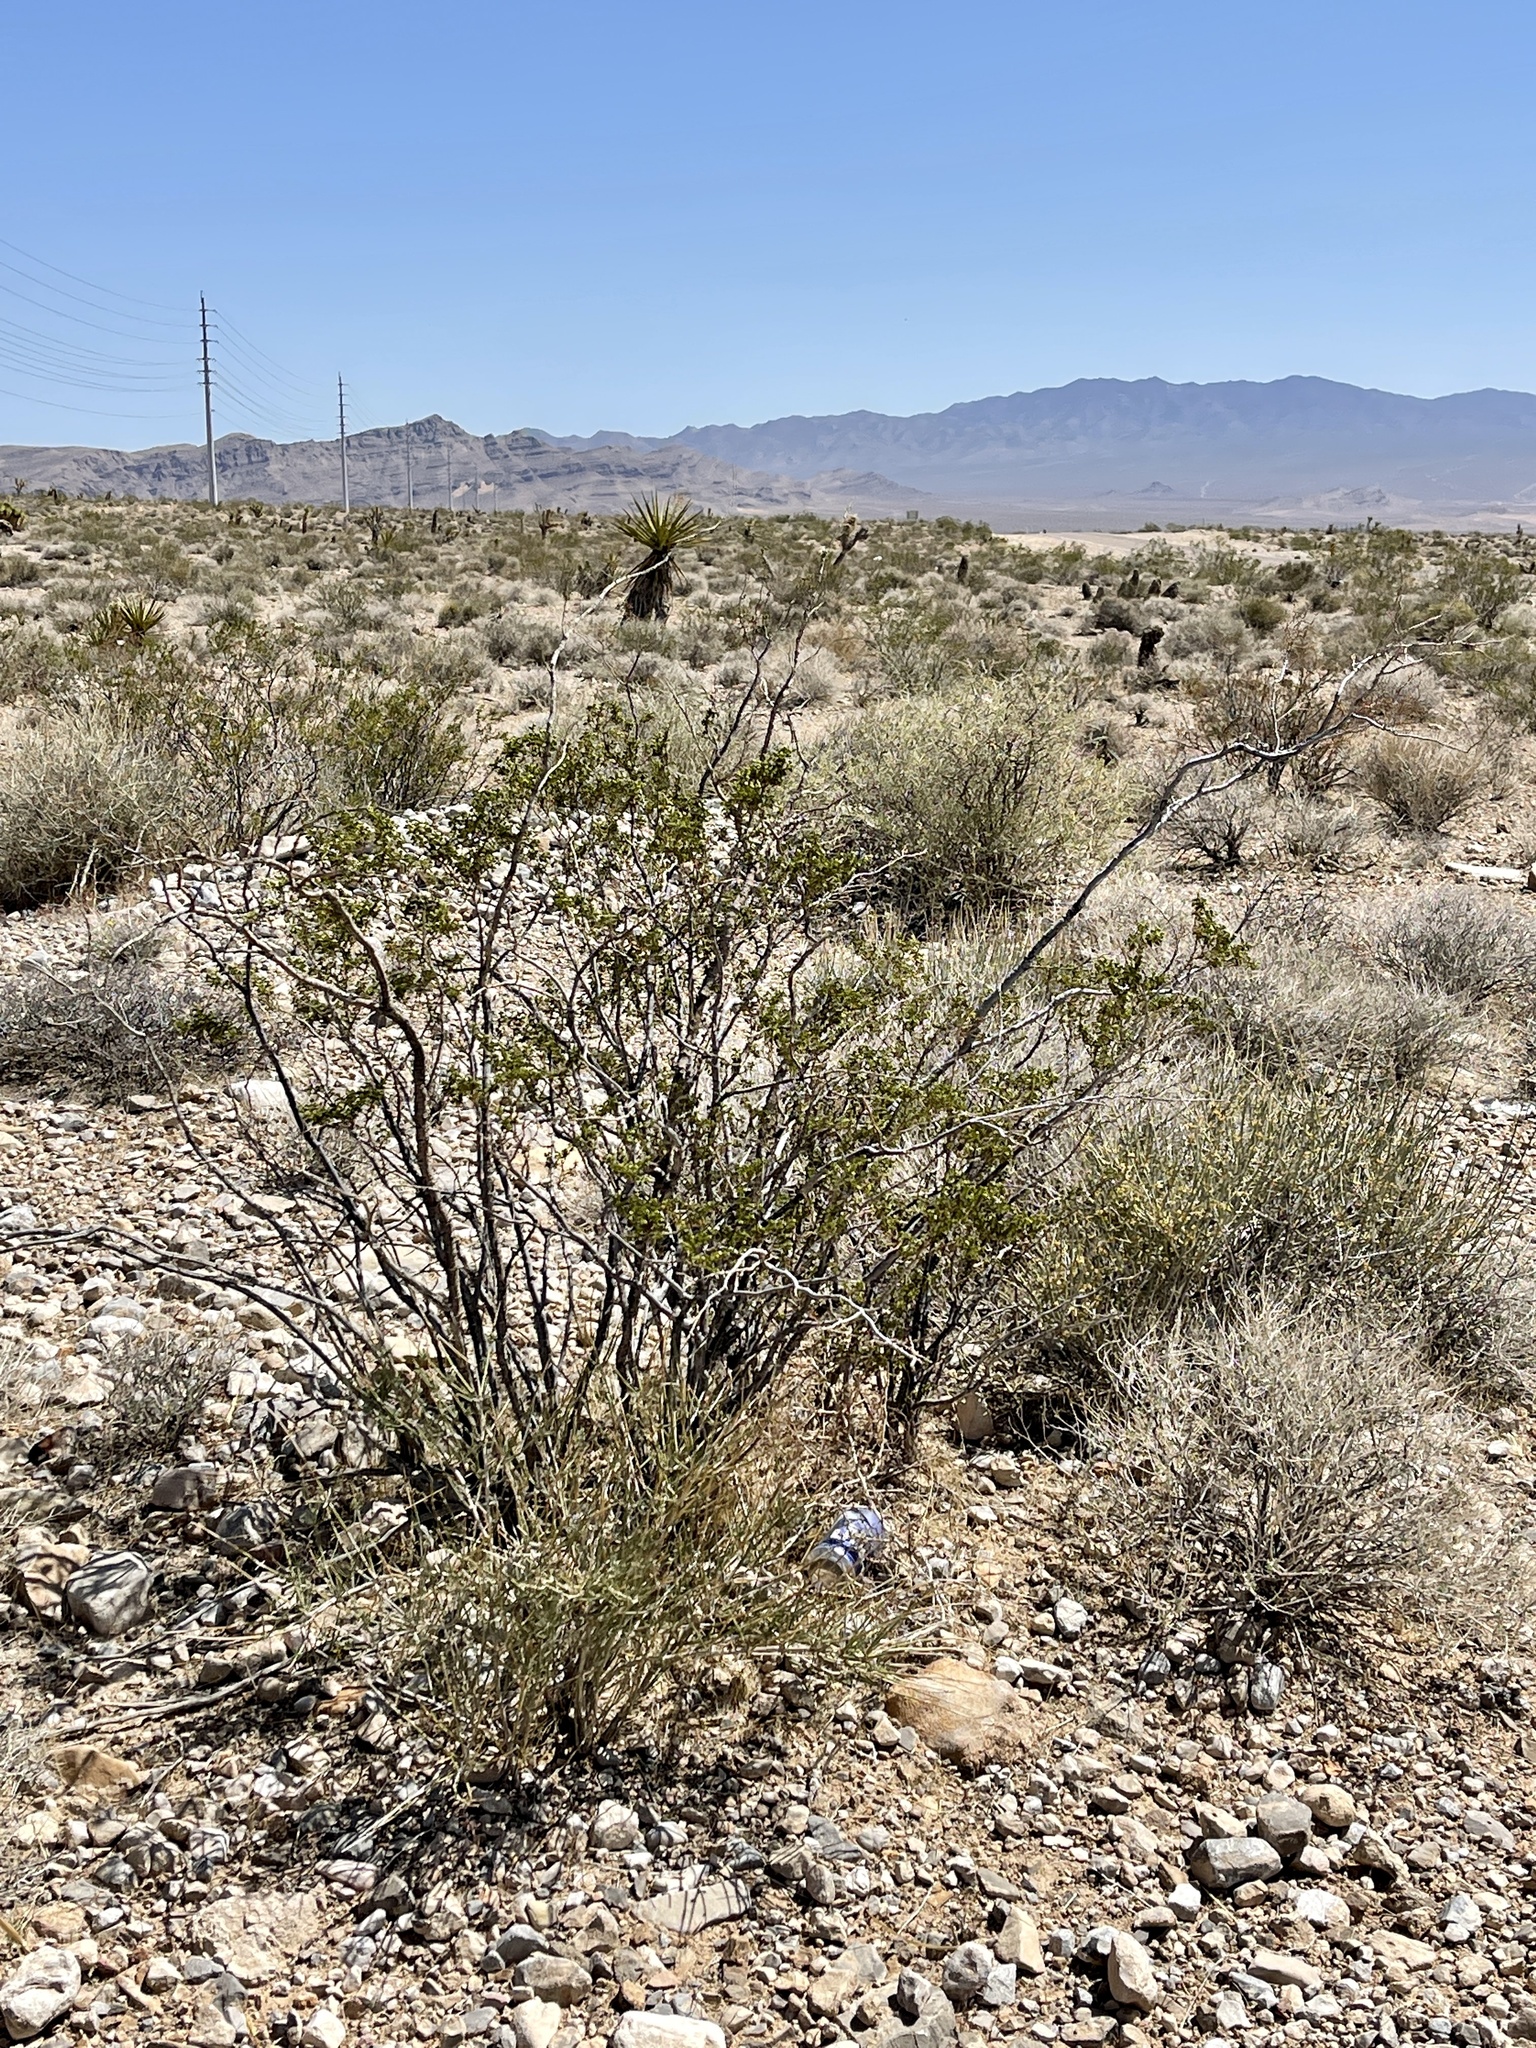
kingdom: Plantae
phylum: Tracheophyta
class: Magnoliopsida
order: Zygophyllales
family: Zygophyllaceae
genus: Larrea
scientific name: Larrea tridentata
